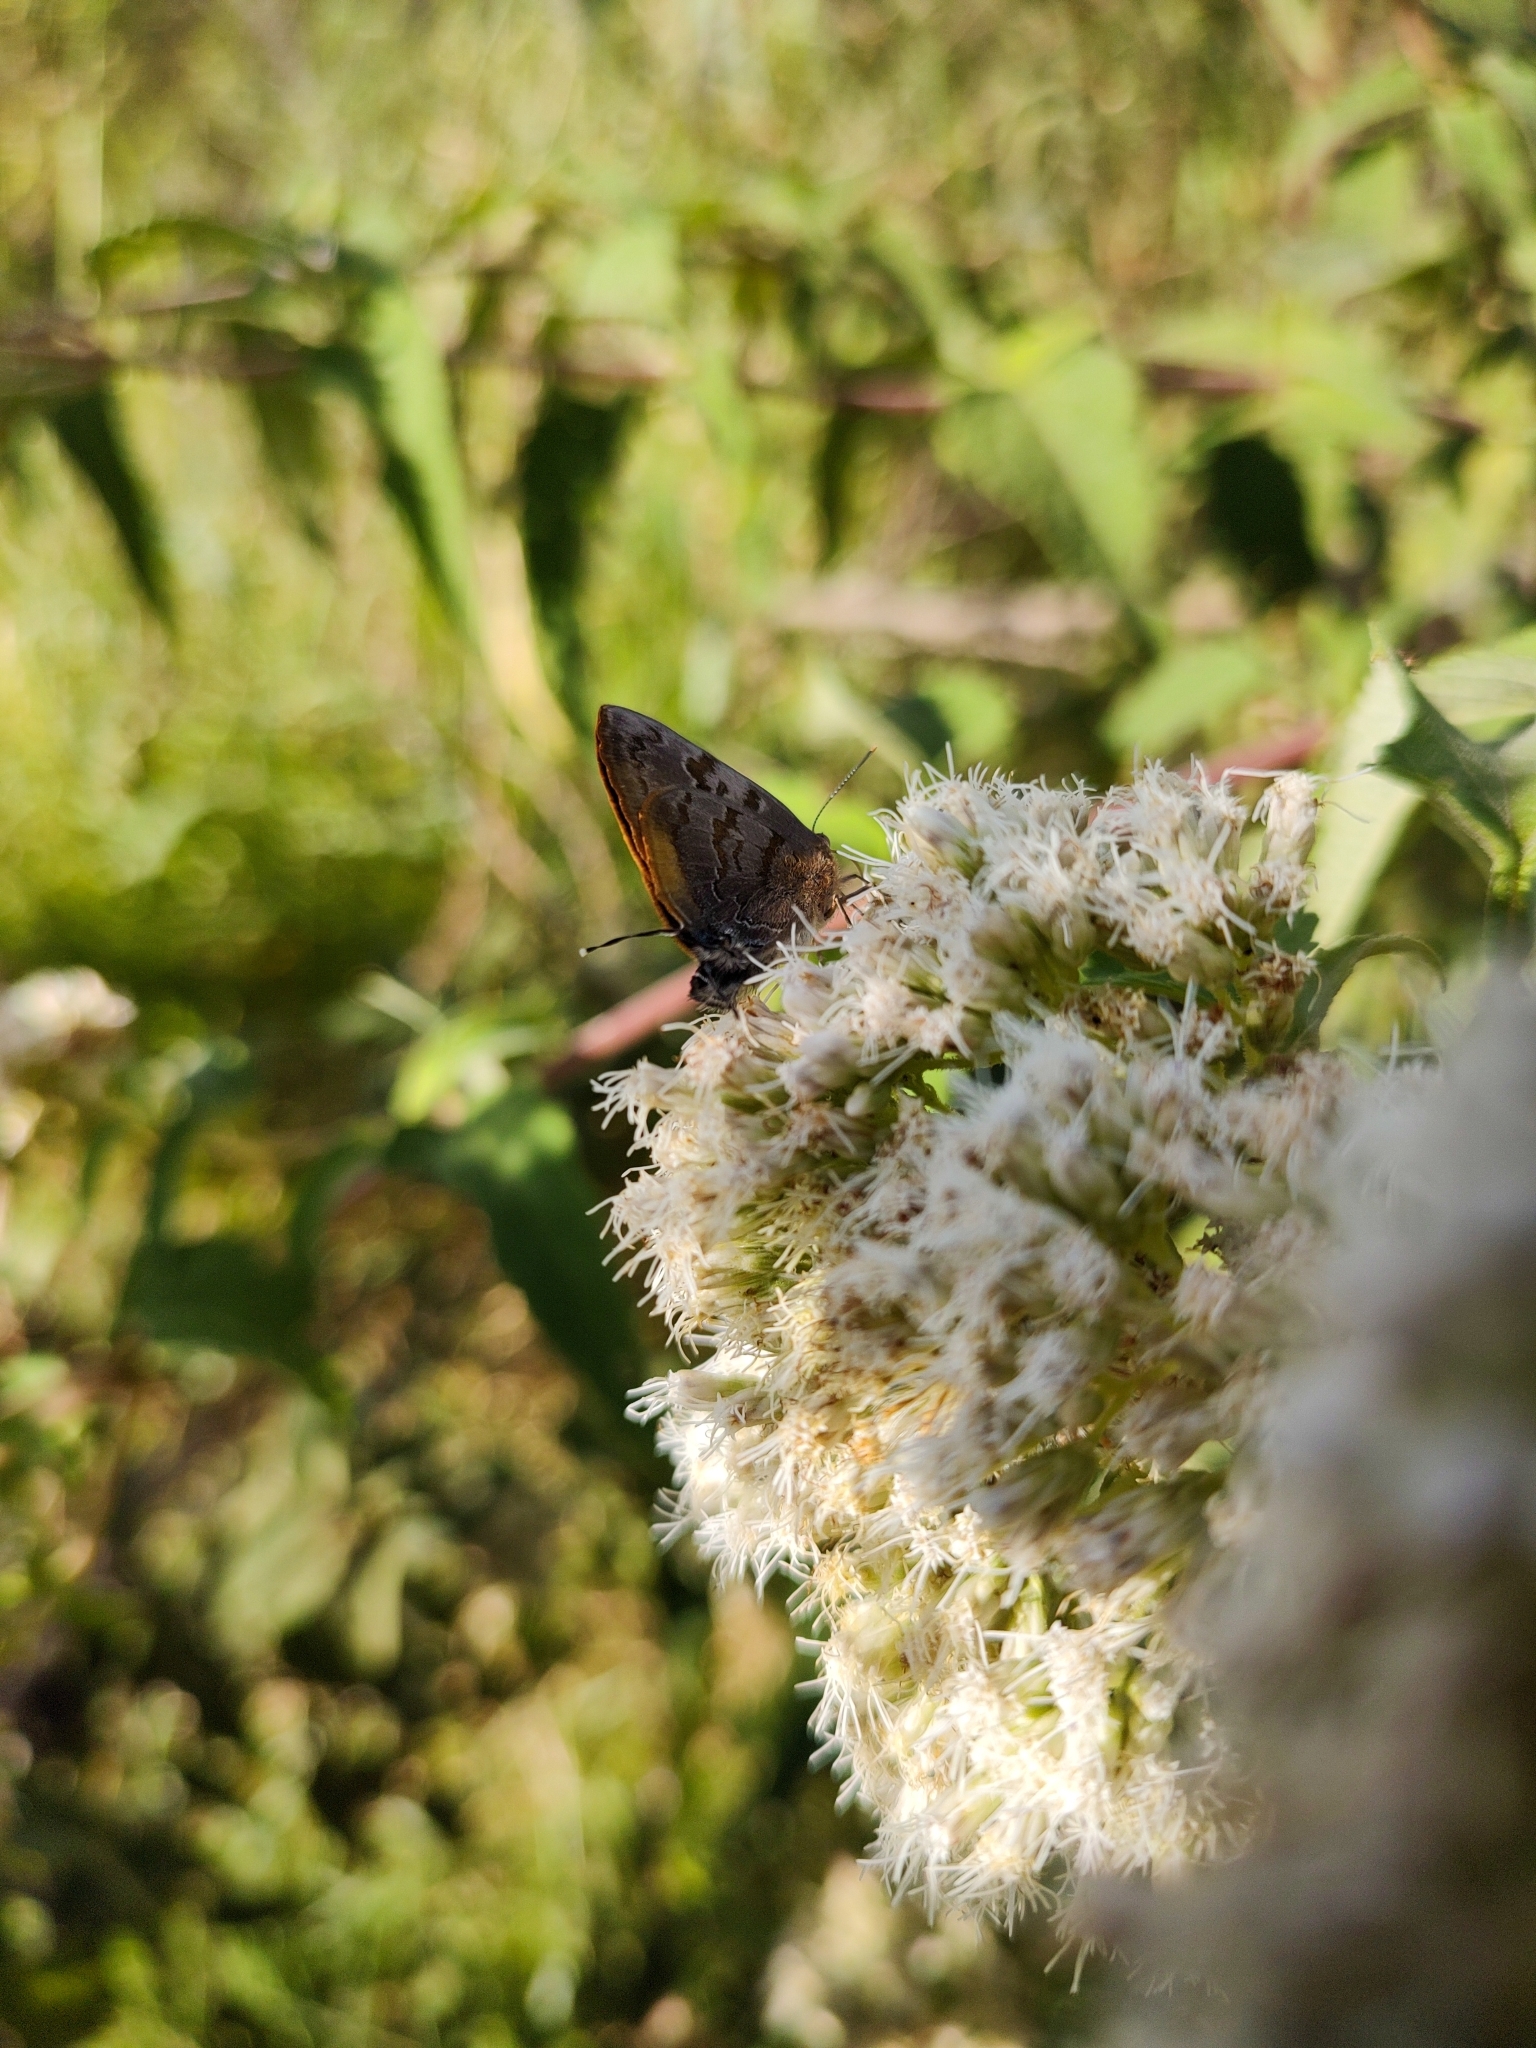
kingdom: Animalia
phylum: Arthropoda
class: Insecta
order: Lepidoptera
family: Lycaenidae
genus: Rekoa
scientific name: Rekoa palegon
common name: Gold-bordered hairstreak
